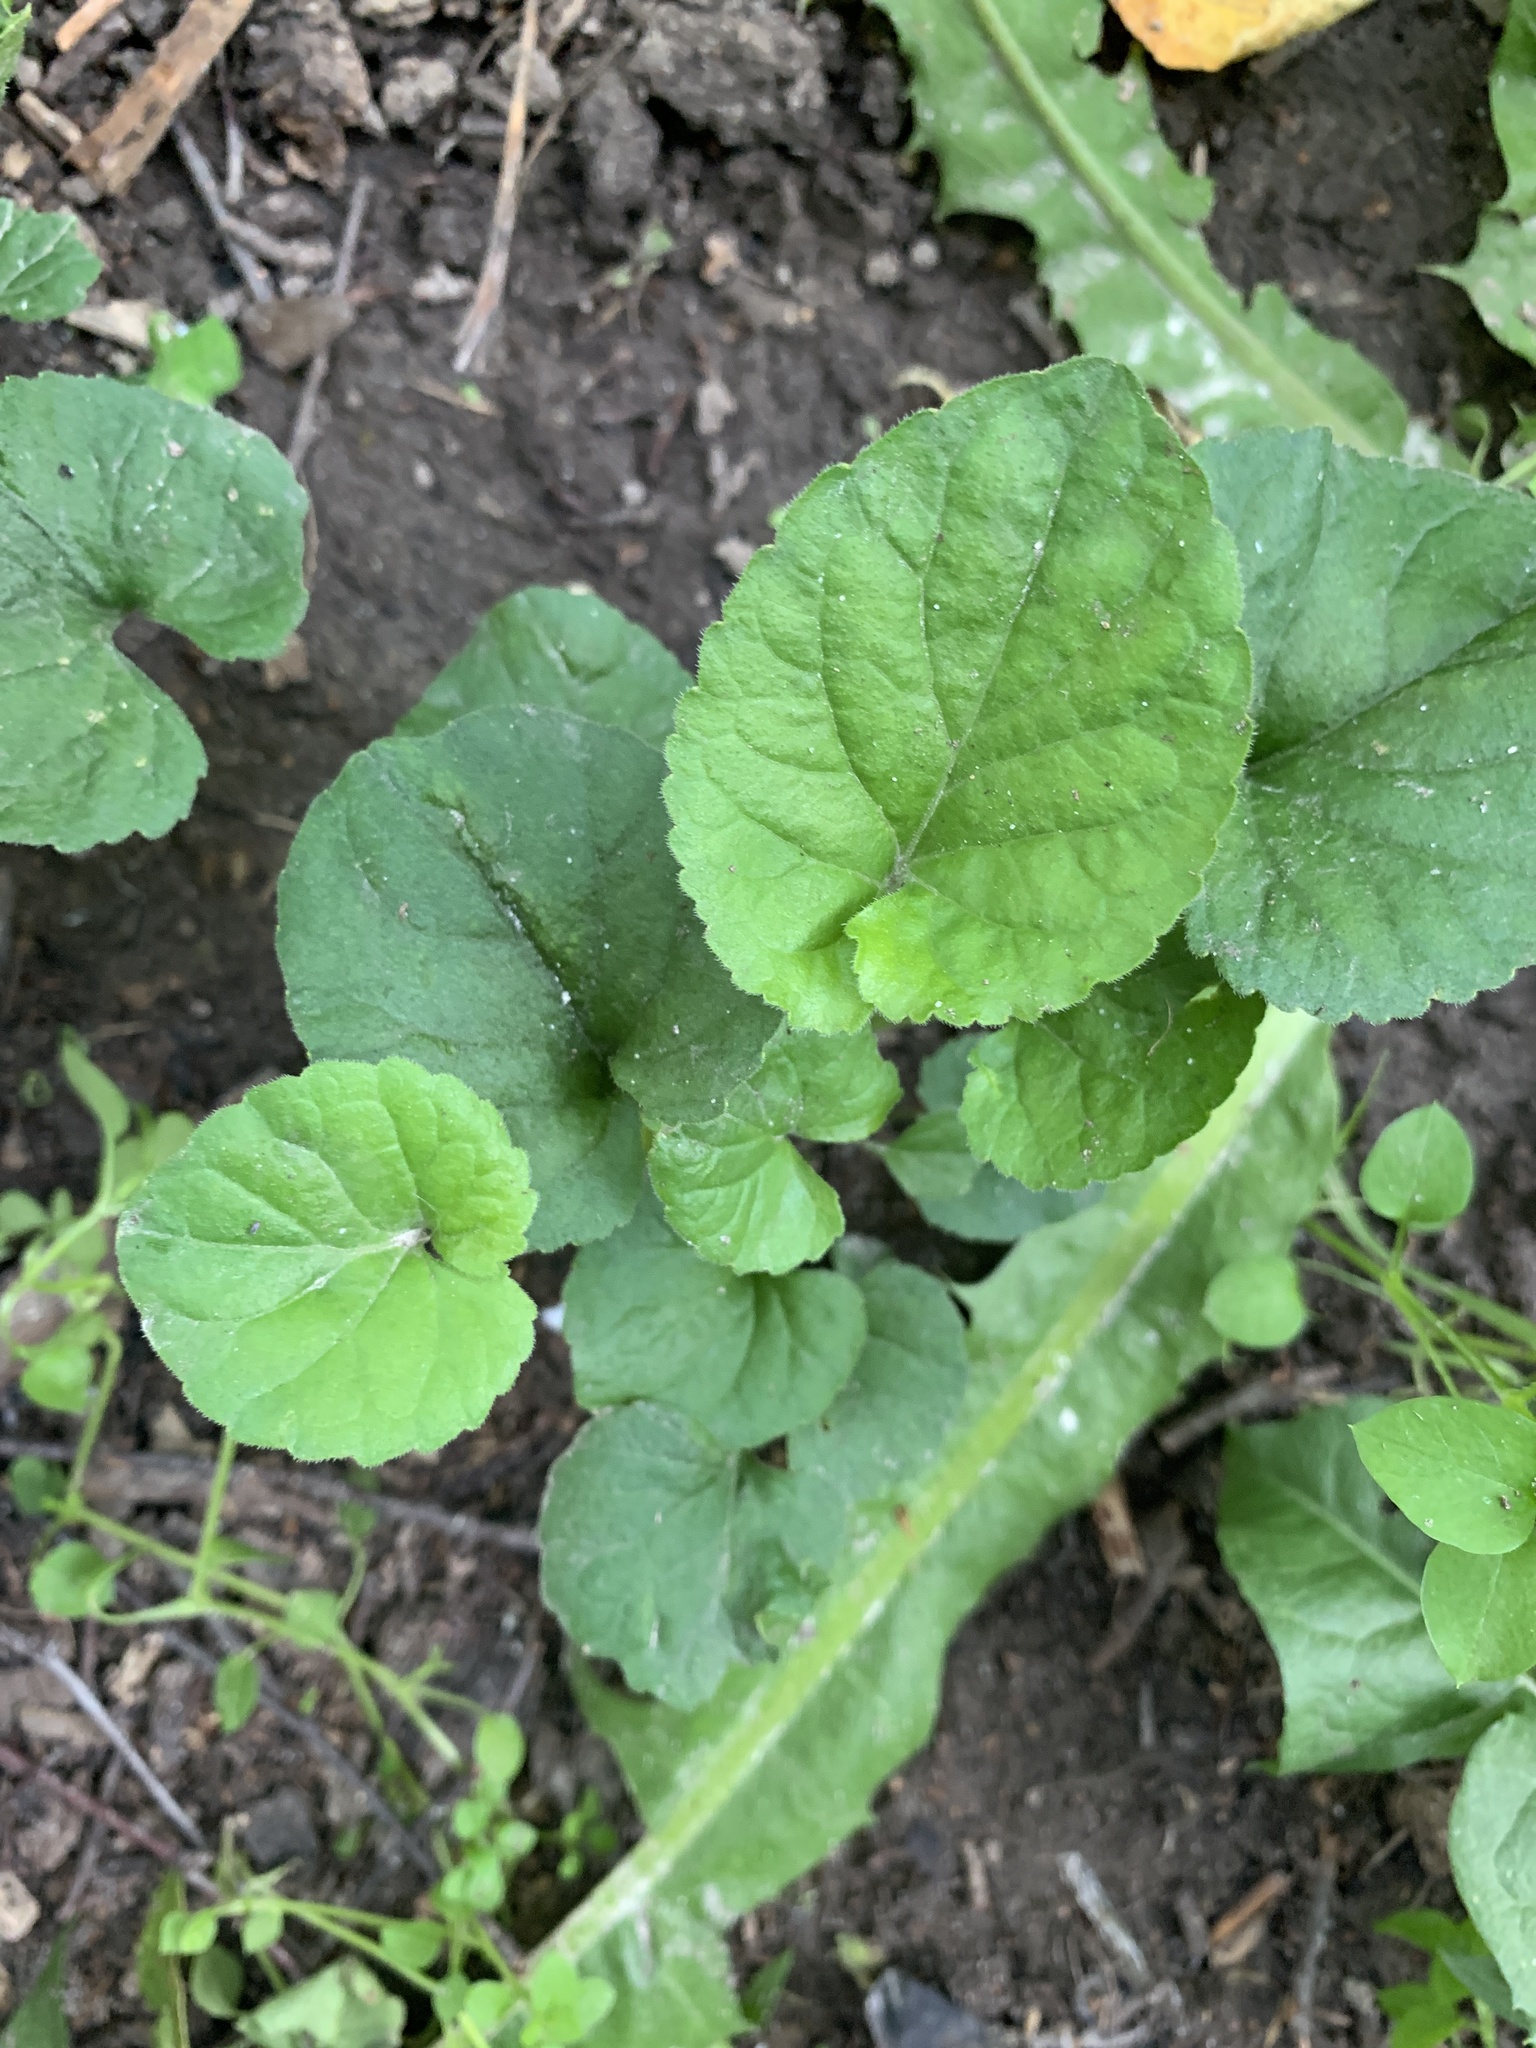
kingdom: Plantae
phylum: Tracheophyta
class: Magnoliopsida
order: Malpighiales
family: Violaceae
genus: Viola
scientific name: Viola odorata
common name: Sweet violet
